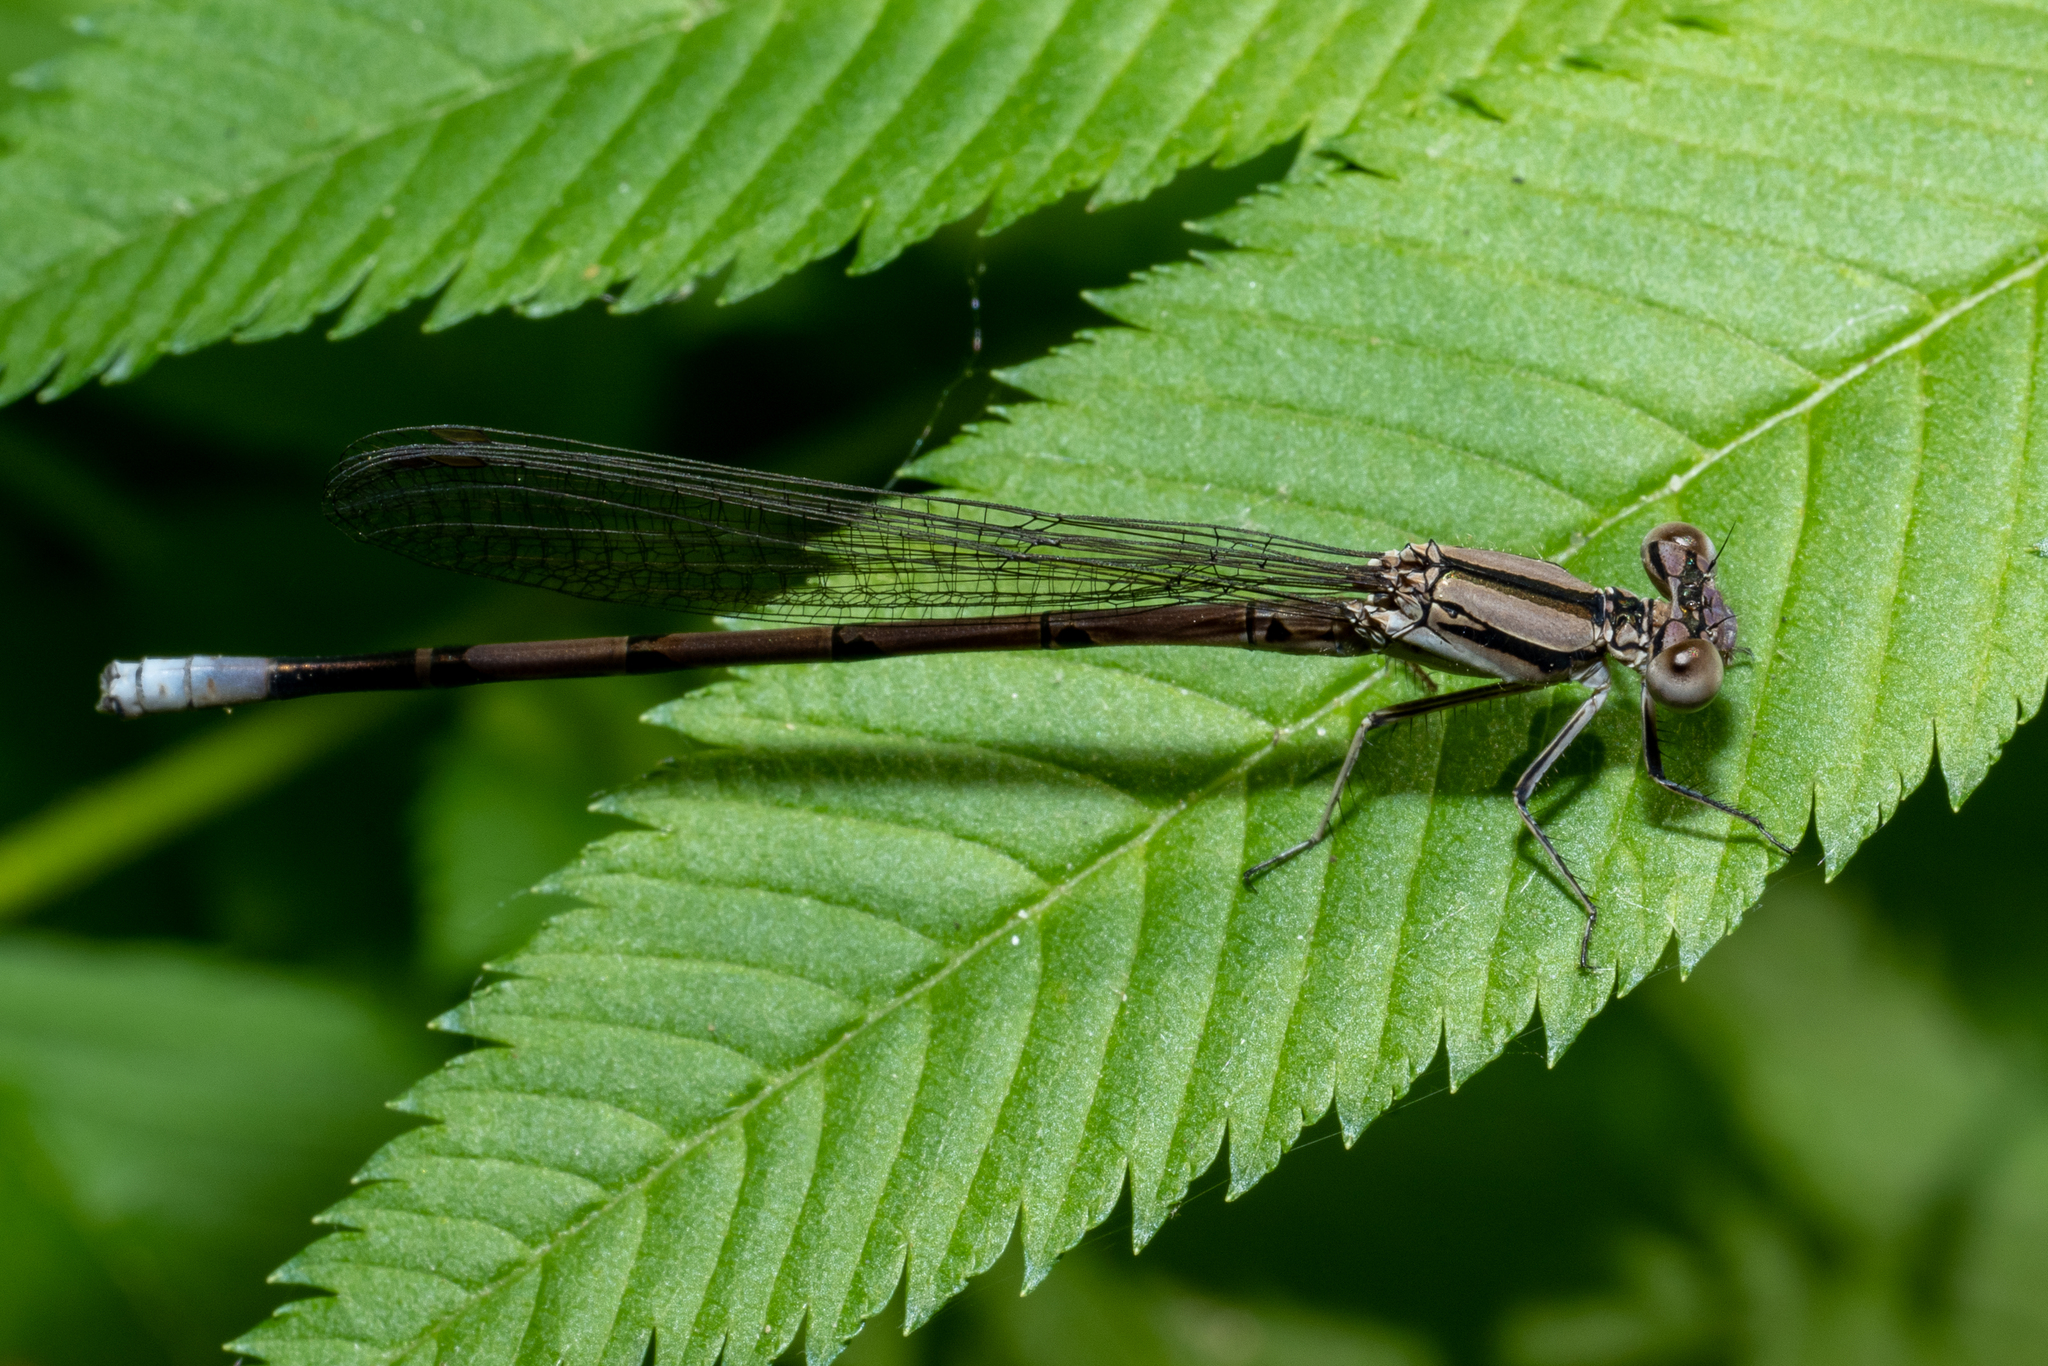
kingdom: Animalia
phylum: Arthropoda
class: Insecta
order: Odonata
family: Coenagrionidae
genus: Argia
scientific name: Argia fumipennis
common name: Variable dancer
